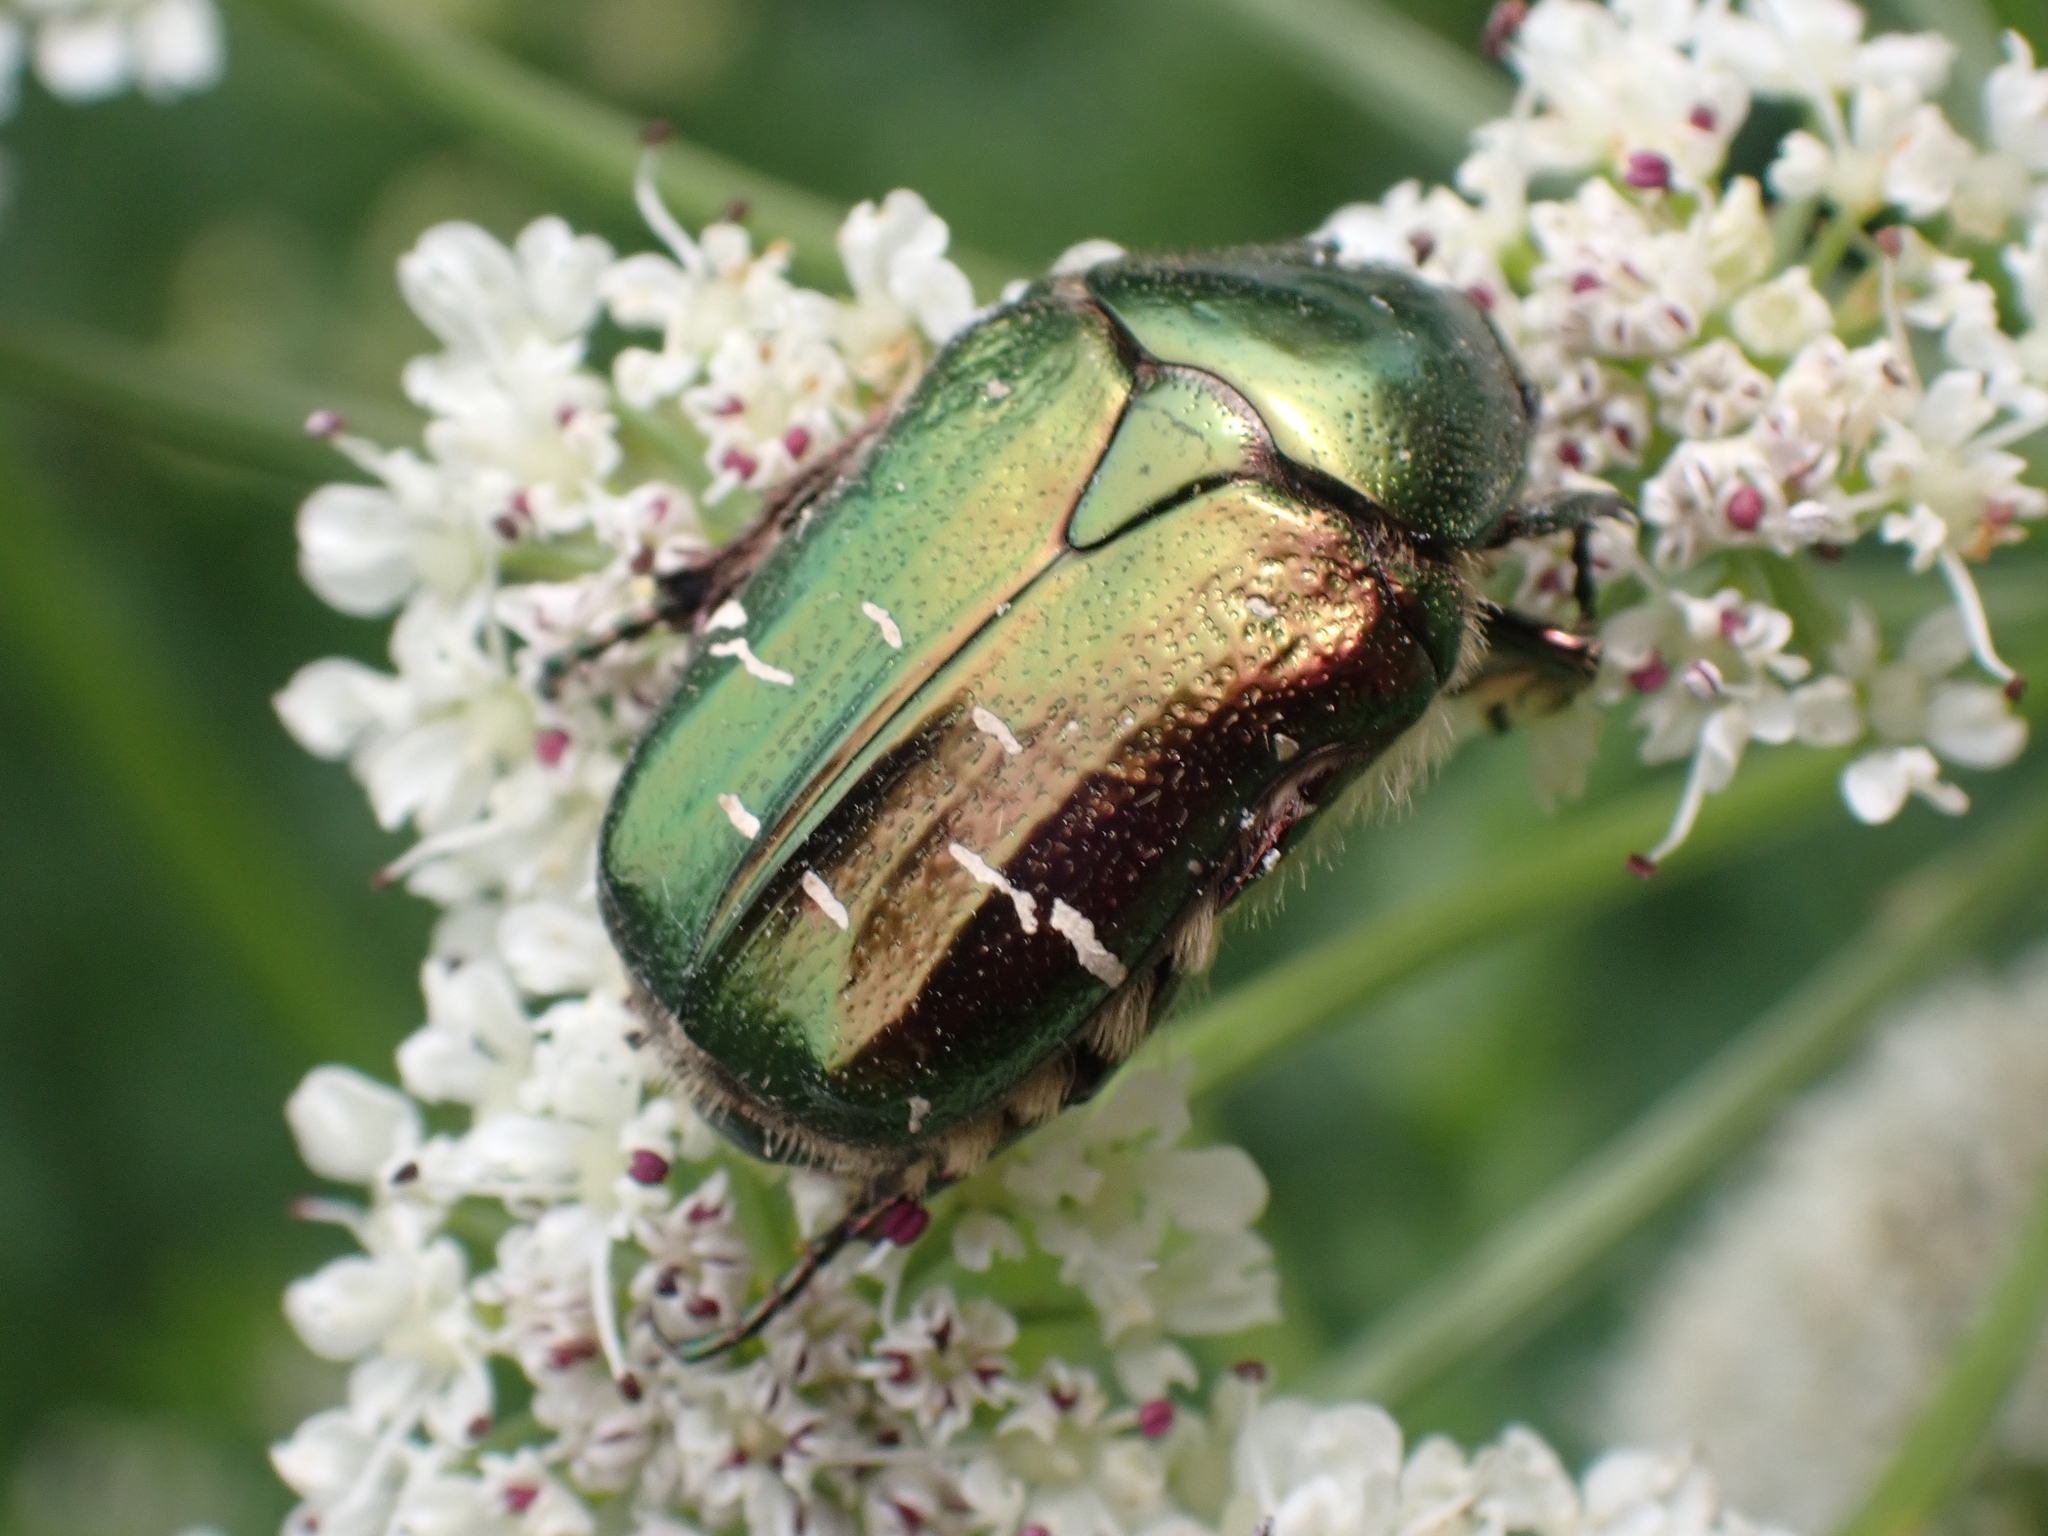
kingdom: Animalia
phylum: Arthropoda
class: Insecta
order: Coleoptera
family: Scarabaeidae
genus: Cetonia
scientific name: Cetonia aurata
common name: Rose chafer
